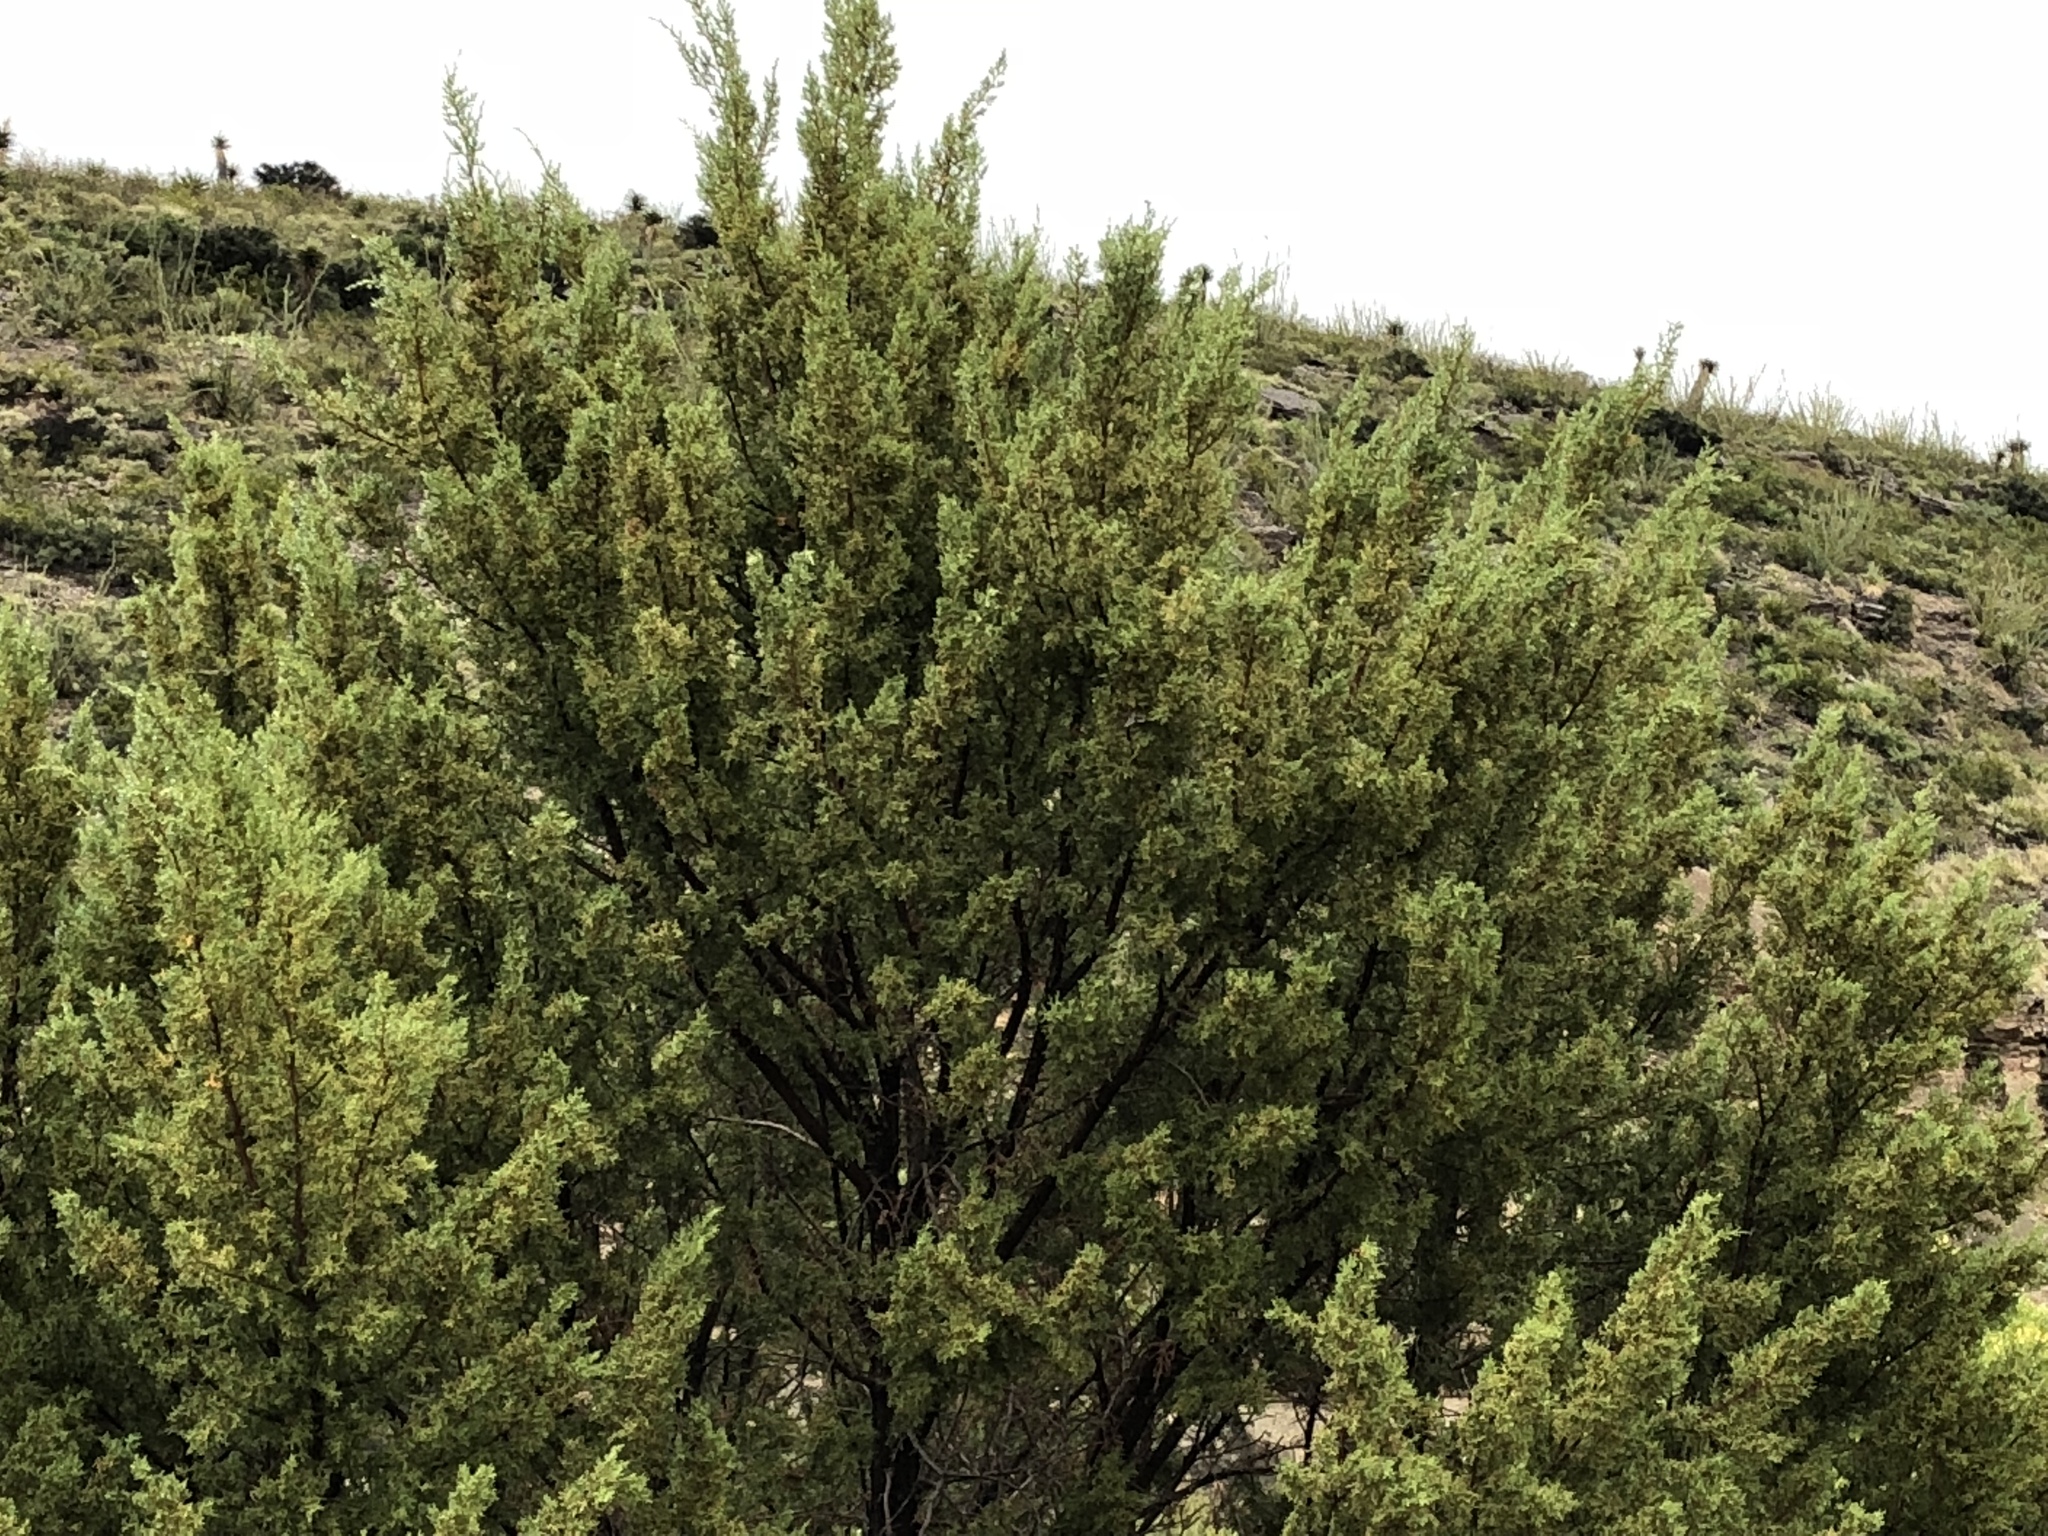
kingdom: Plantae
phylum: Tracheophyta
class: Pinopsida
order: Pinales
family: Cupressaceae
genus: Juniperus
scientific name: Juniperus monosperma
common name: One-seed juniper
